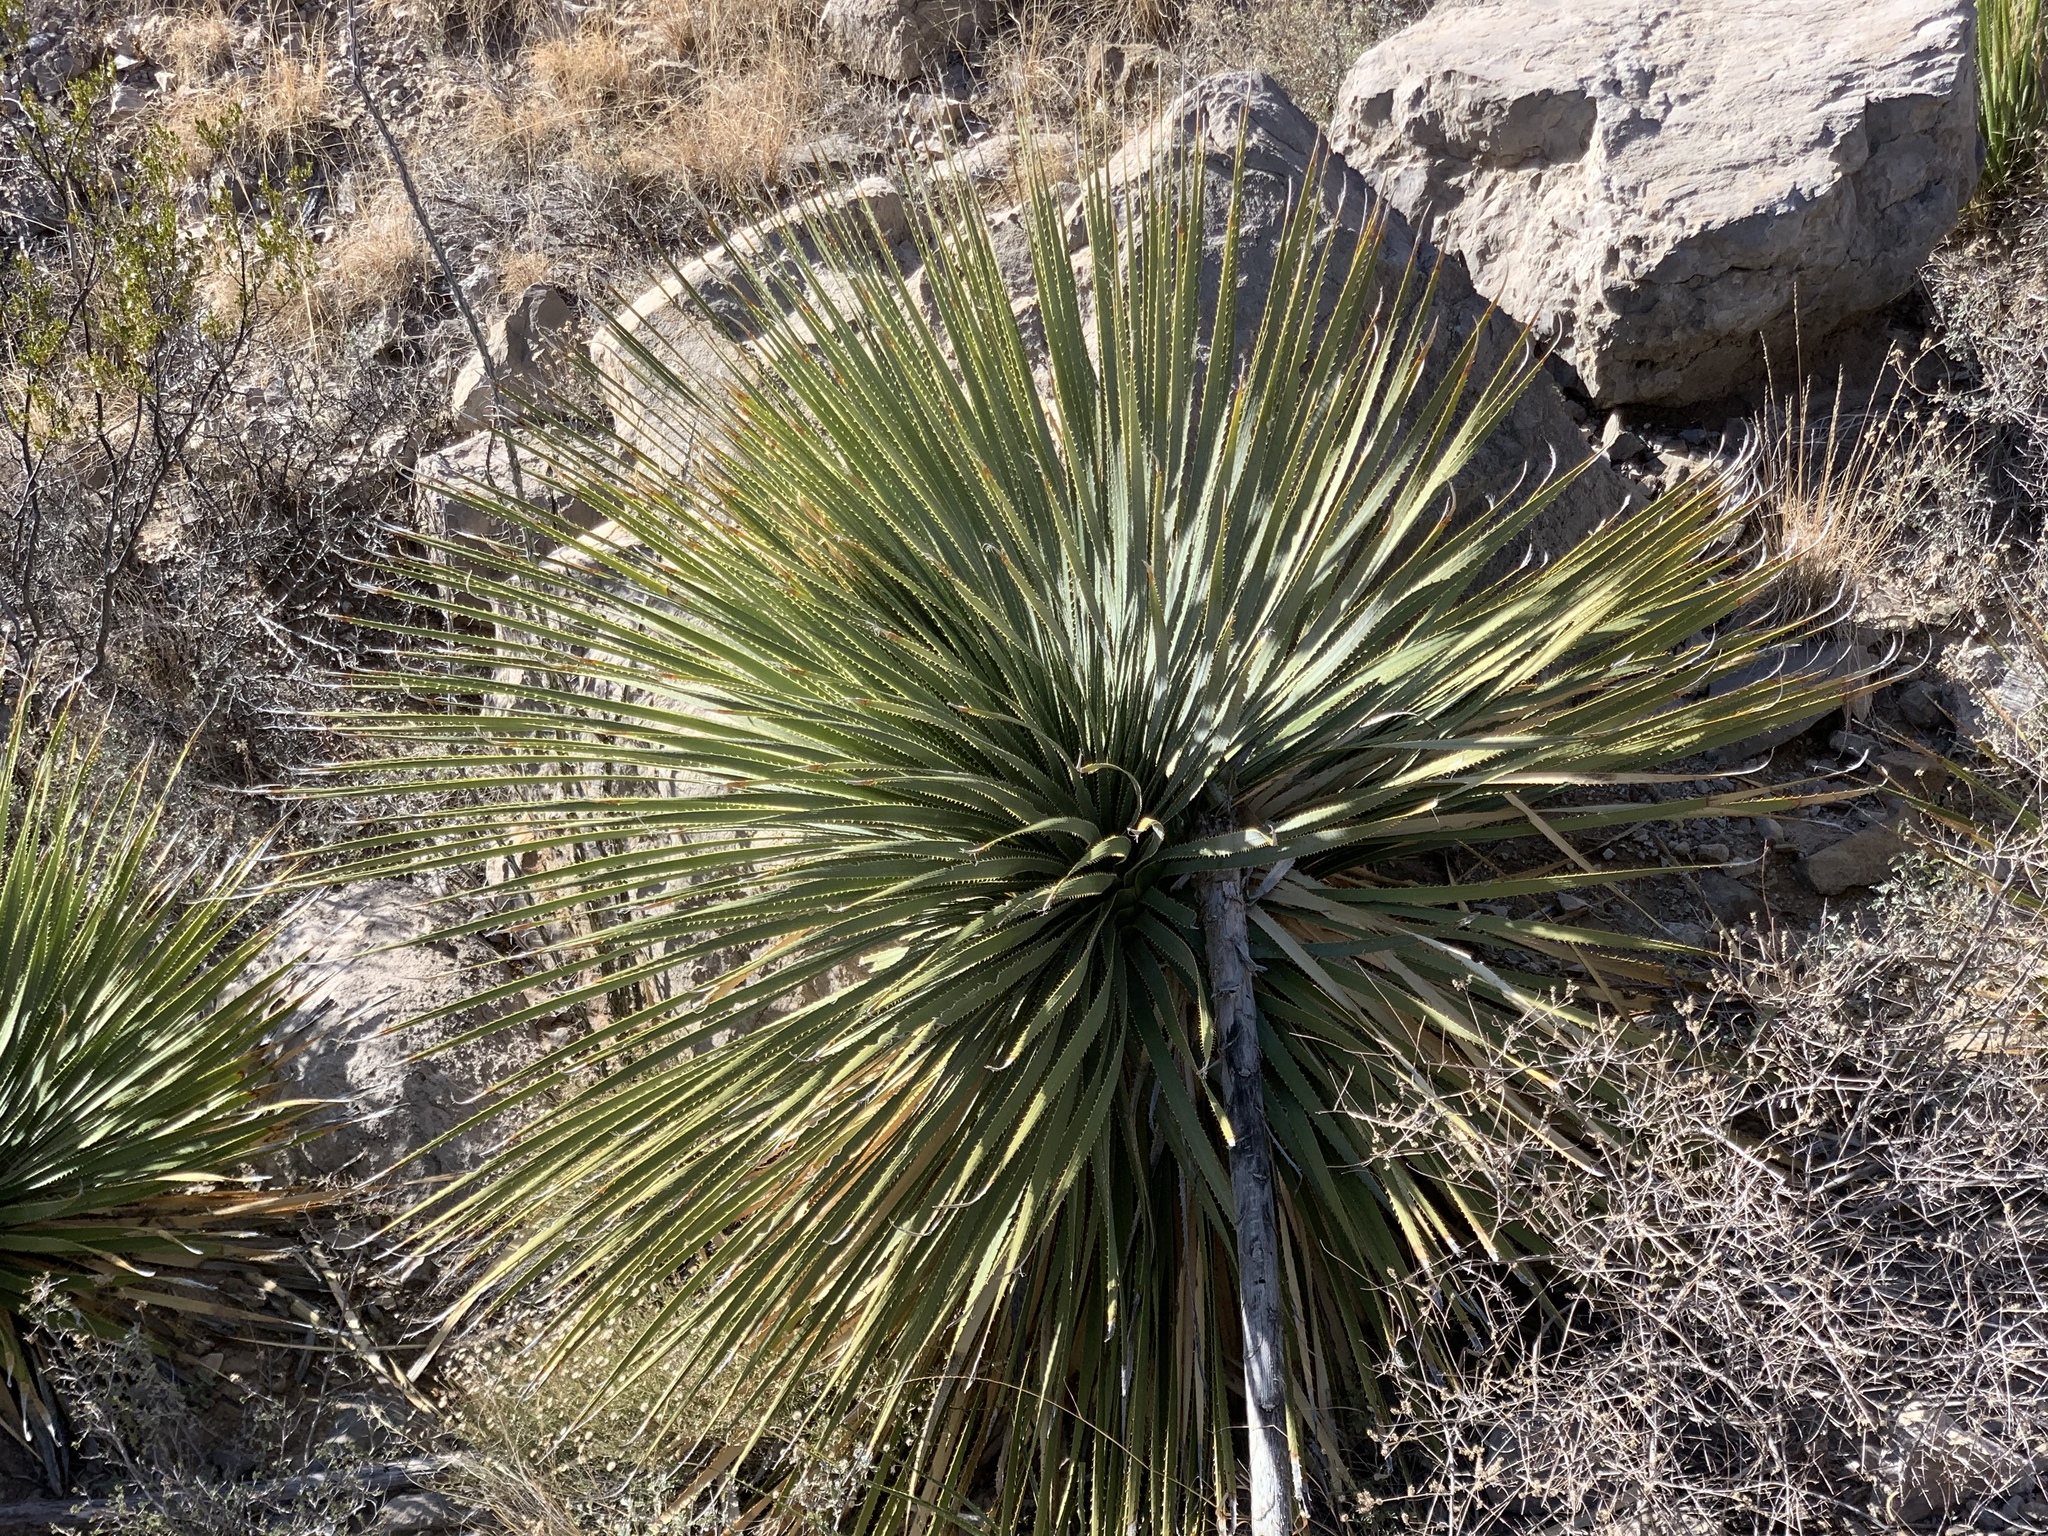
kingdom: Plantae
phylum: Tracheophyta
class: Liliopsida
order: Asparagales
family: Asparagaceae
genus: Dasylirion
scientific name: Dasylirion wheeleri
